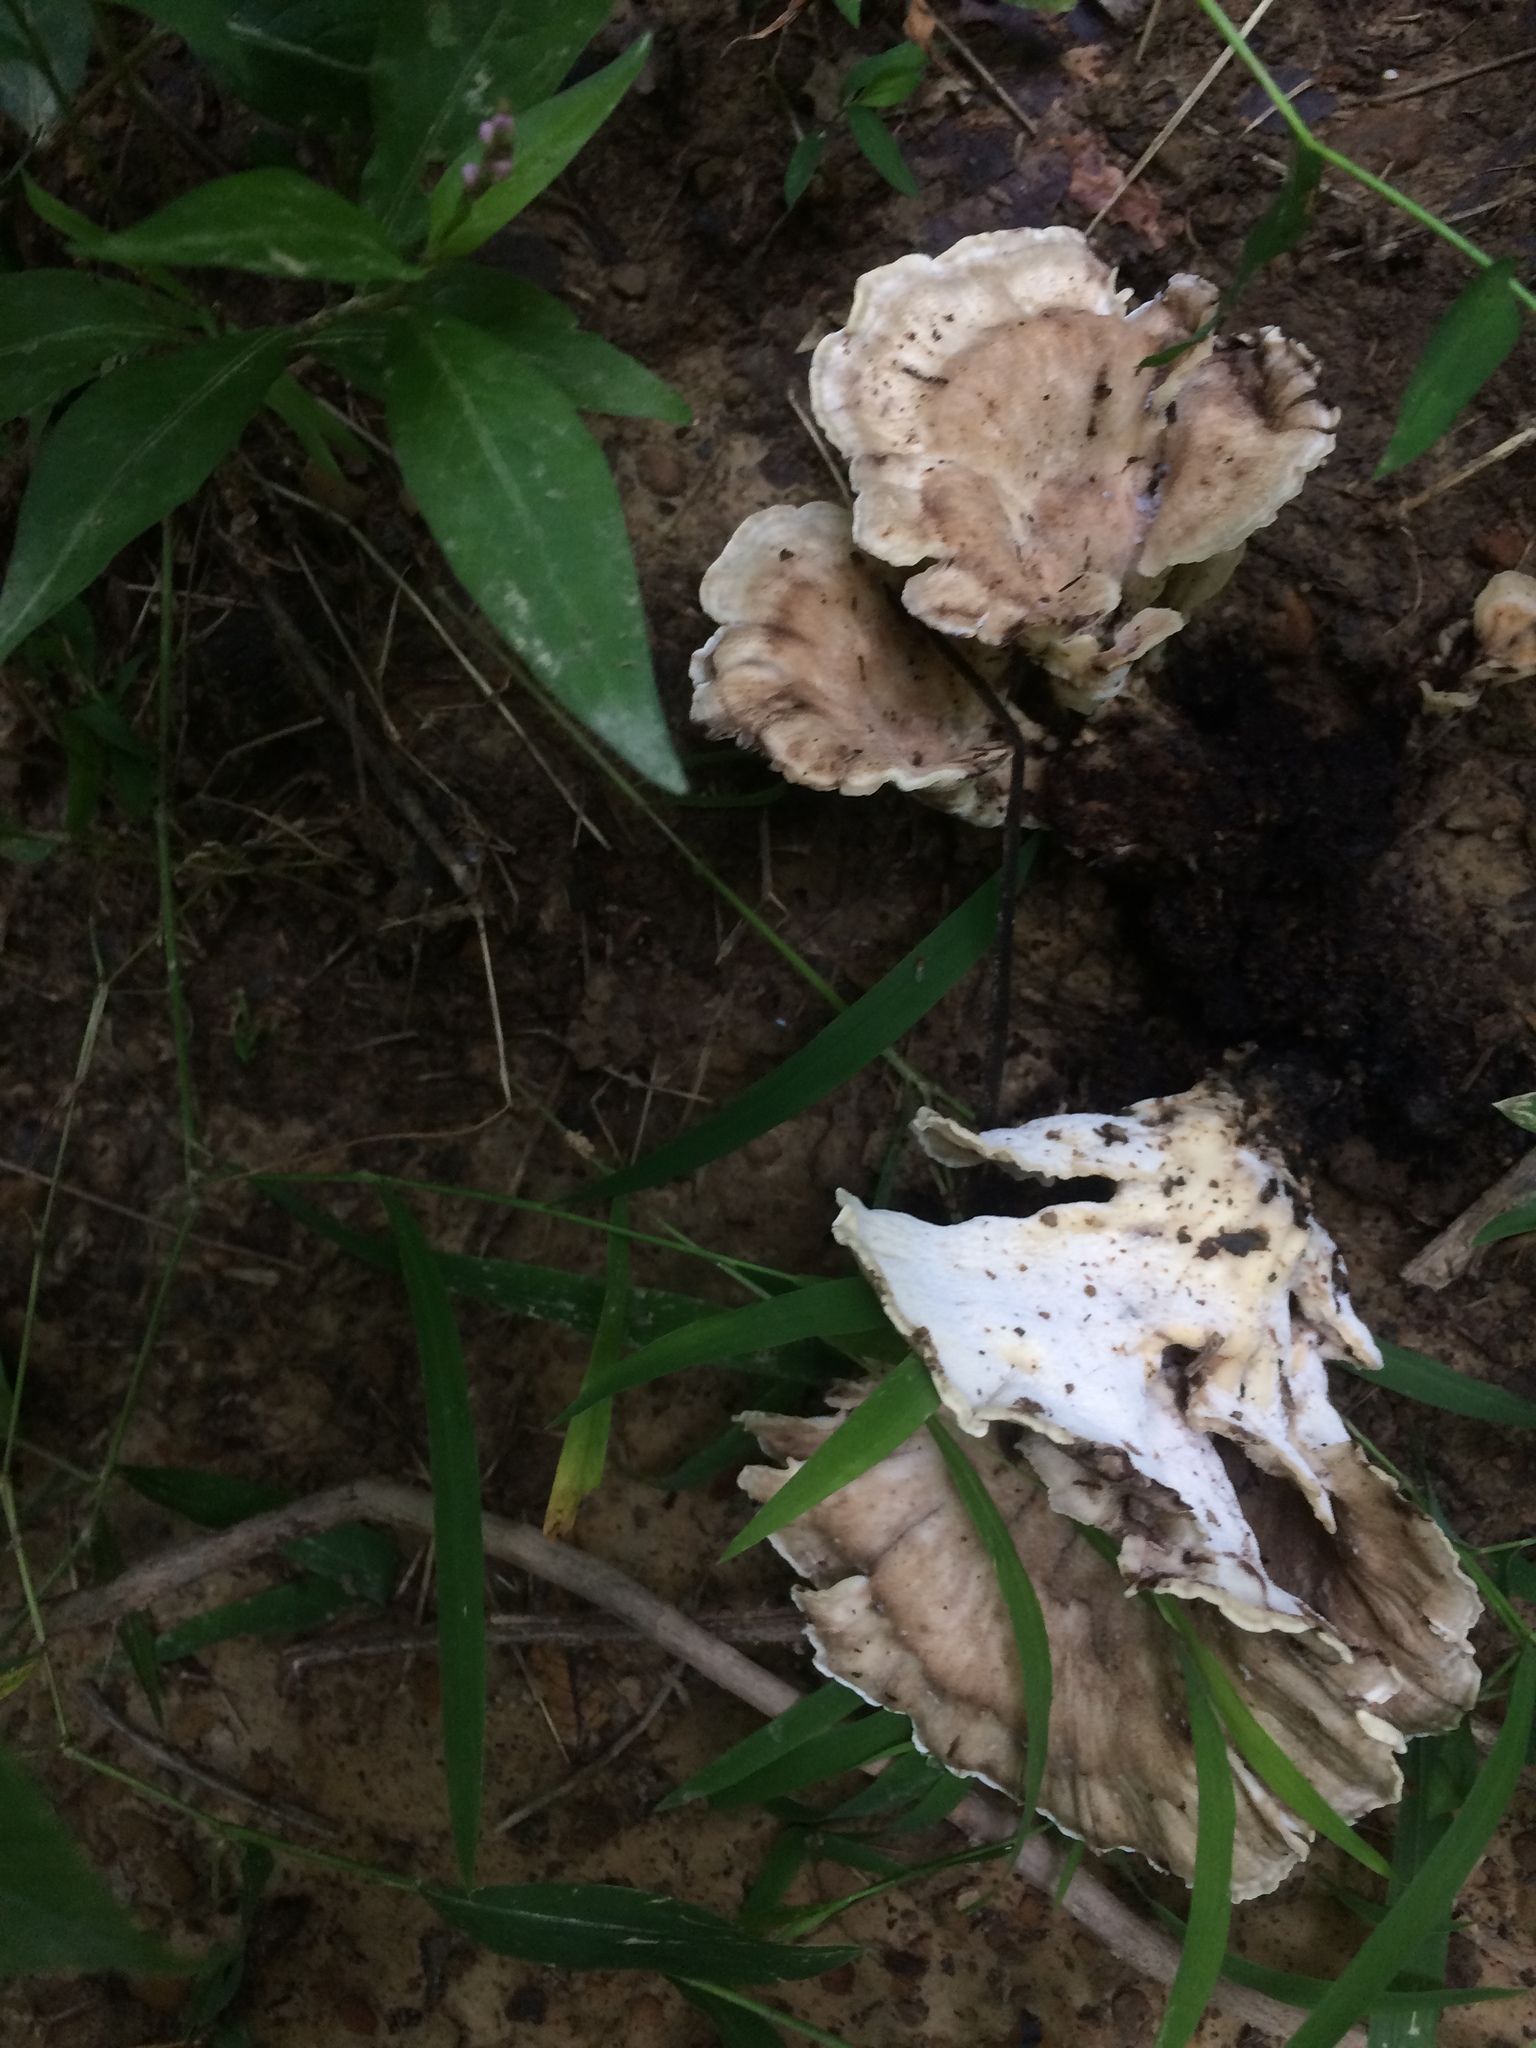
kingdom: Fungi
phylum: Basidiomycota
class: Agaricomycetes
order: Polyporales
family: Meripilaceae
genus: Meripilus
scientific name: Meripilus sumstinei
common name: Black-staining polypore
